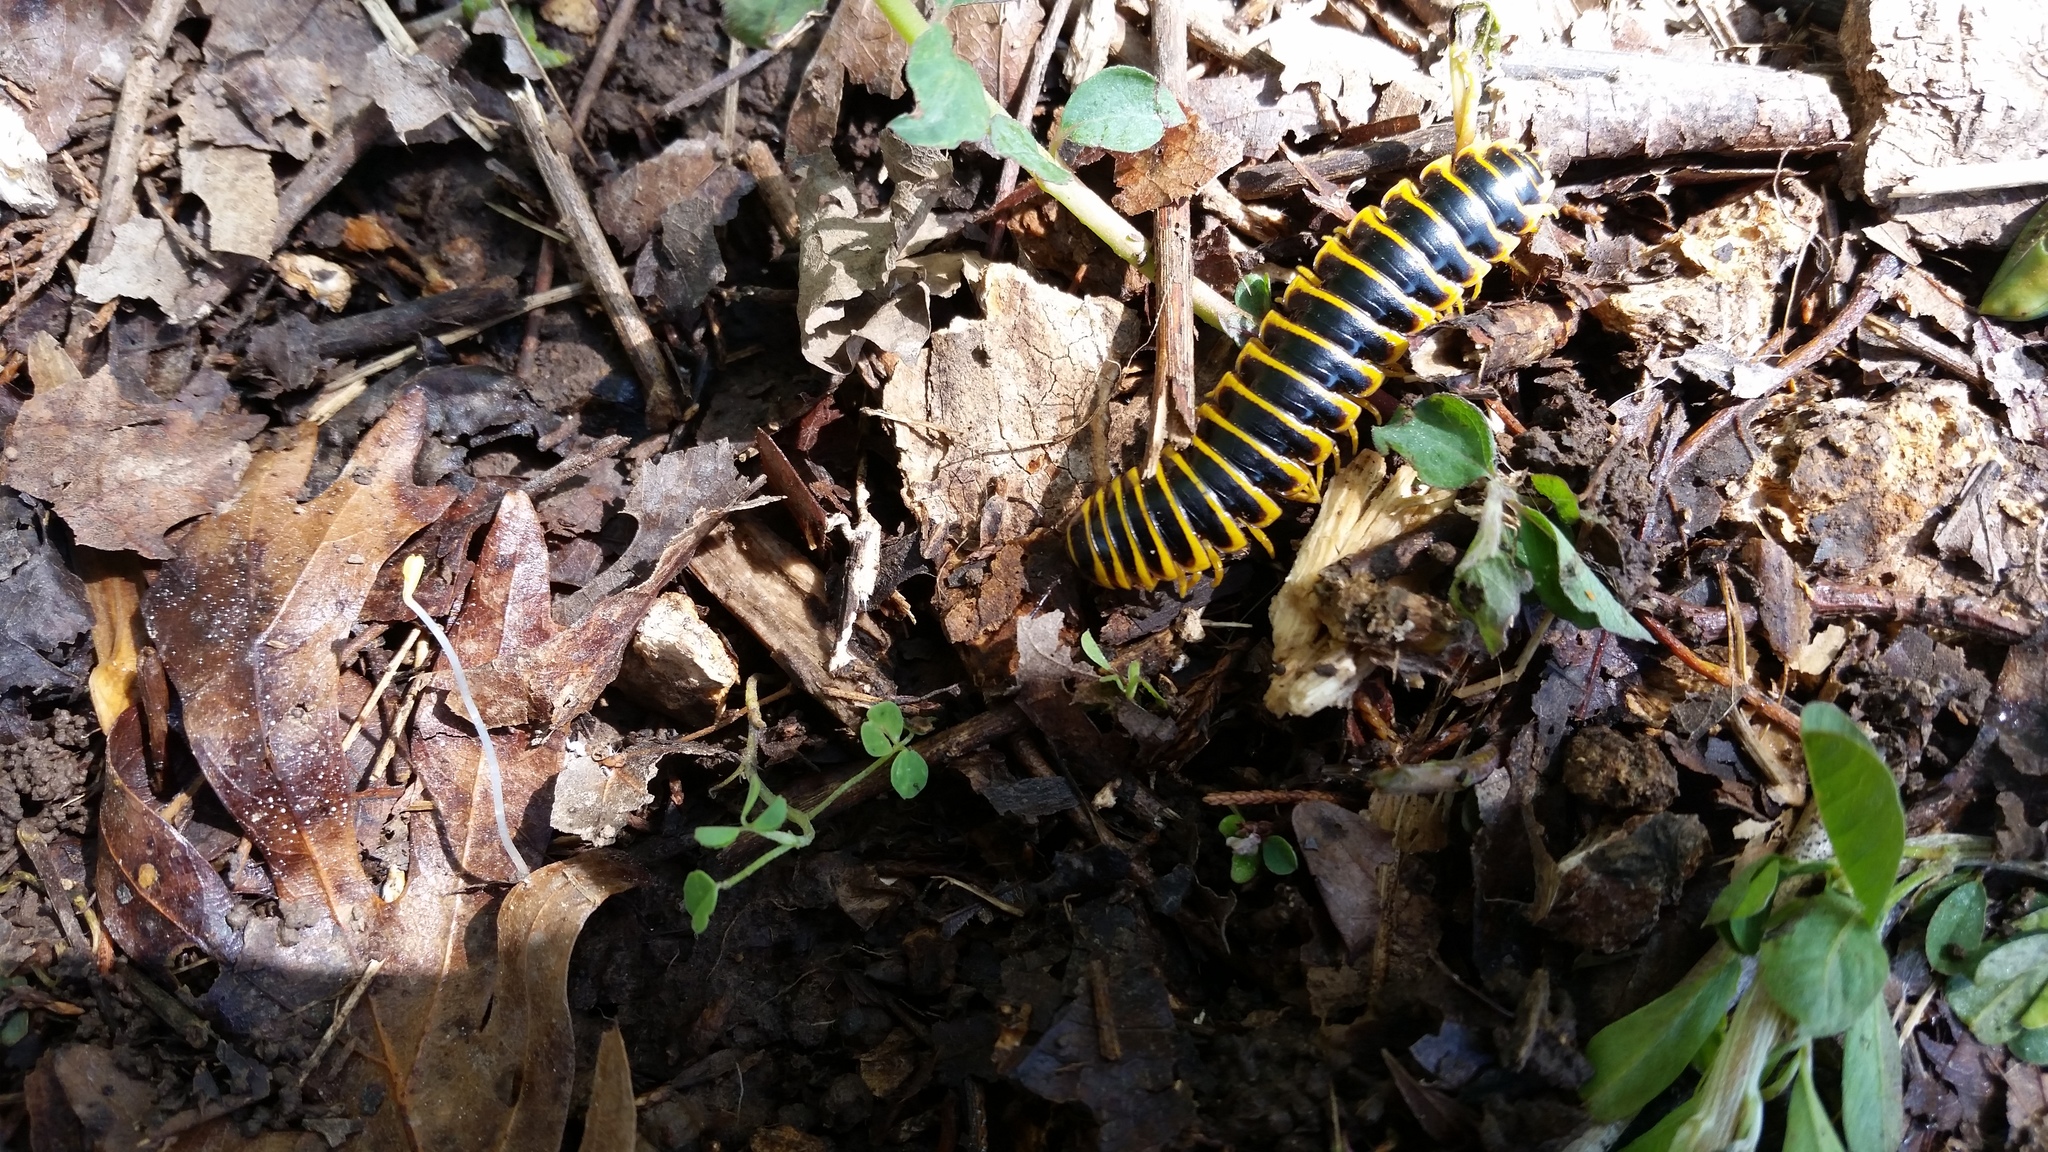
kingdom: Animalia
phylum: Arthropoda
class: Diplopoda
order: Polydesmida
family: Xystodesmidae
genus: Apheloria
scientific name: Apheloria virginiensis
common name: Black-and-gold flat millipede
